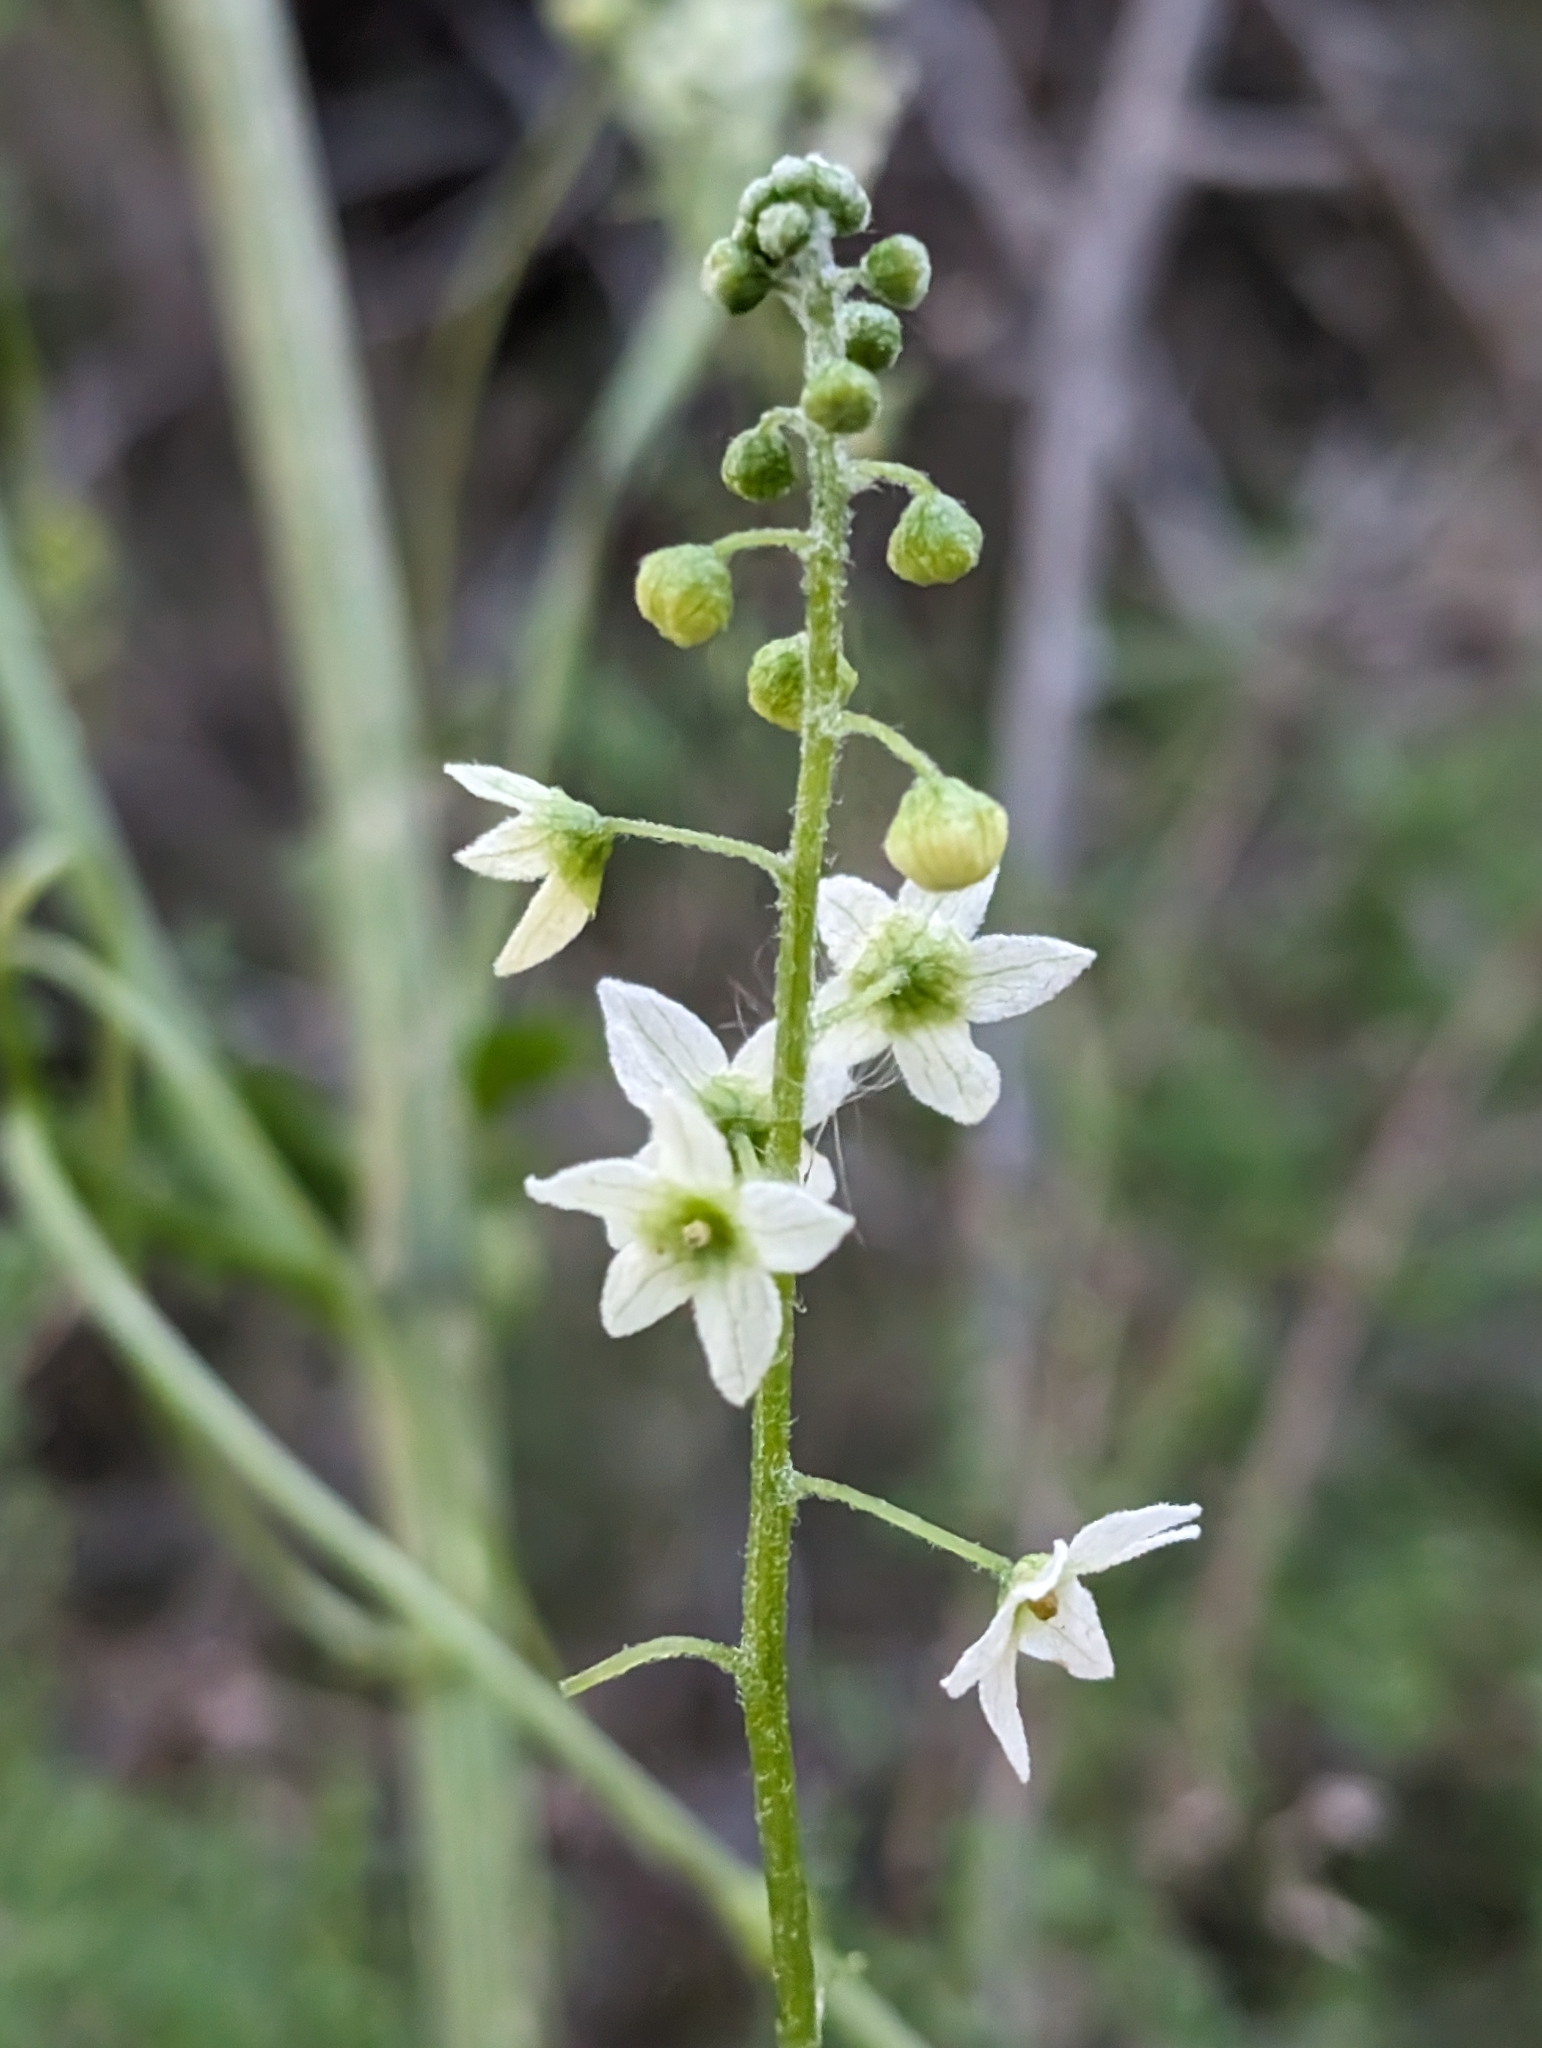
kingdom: Plantae
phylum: Tracheophyta
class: Magnoliopsida
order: Cucurbitales
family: Cucurbitaceae
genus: Marah
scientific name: Marah fabacea
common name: California manroot
